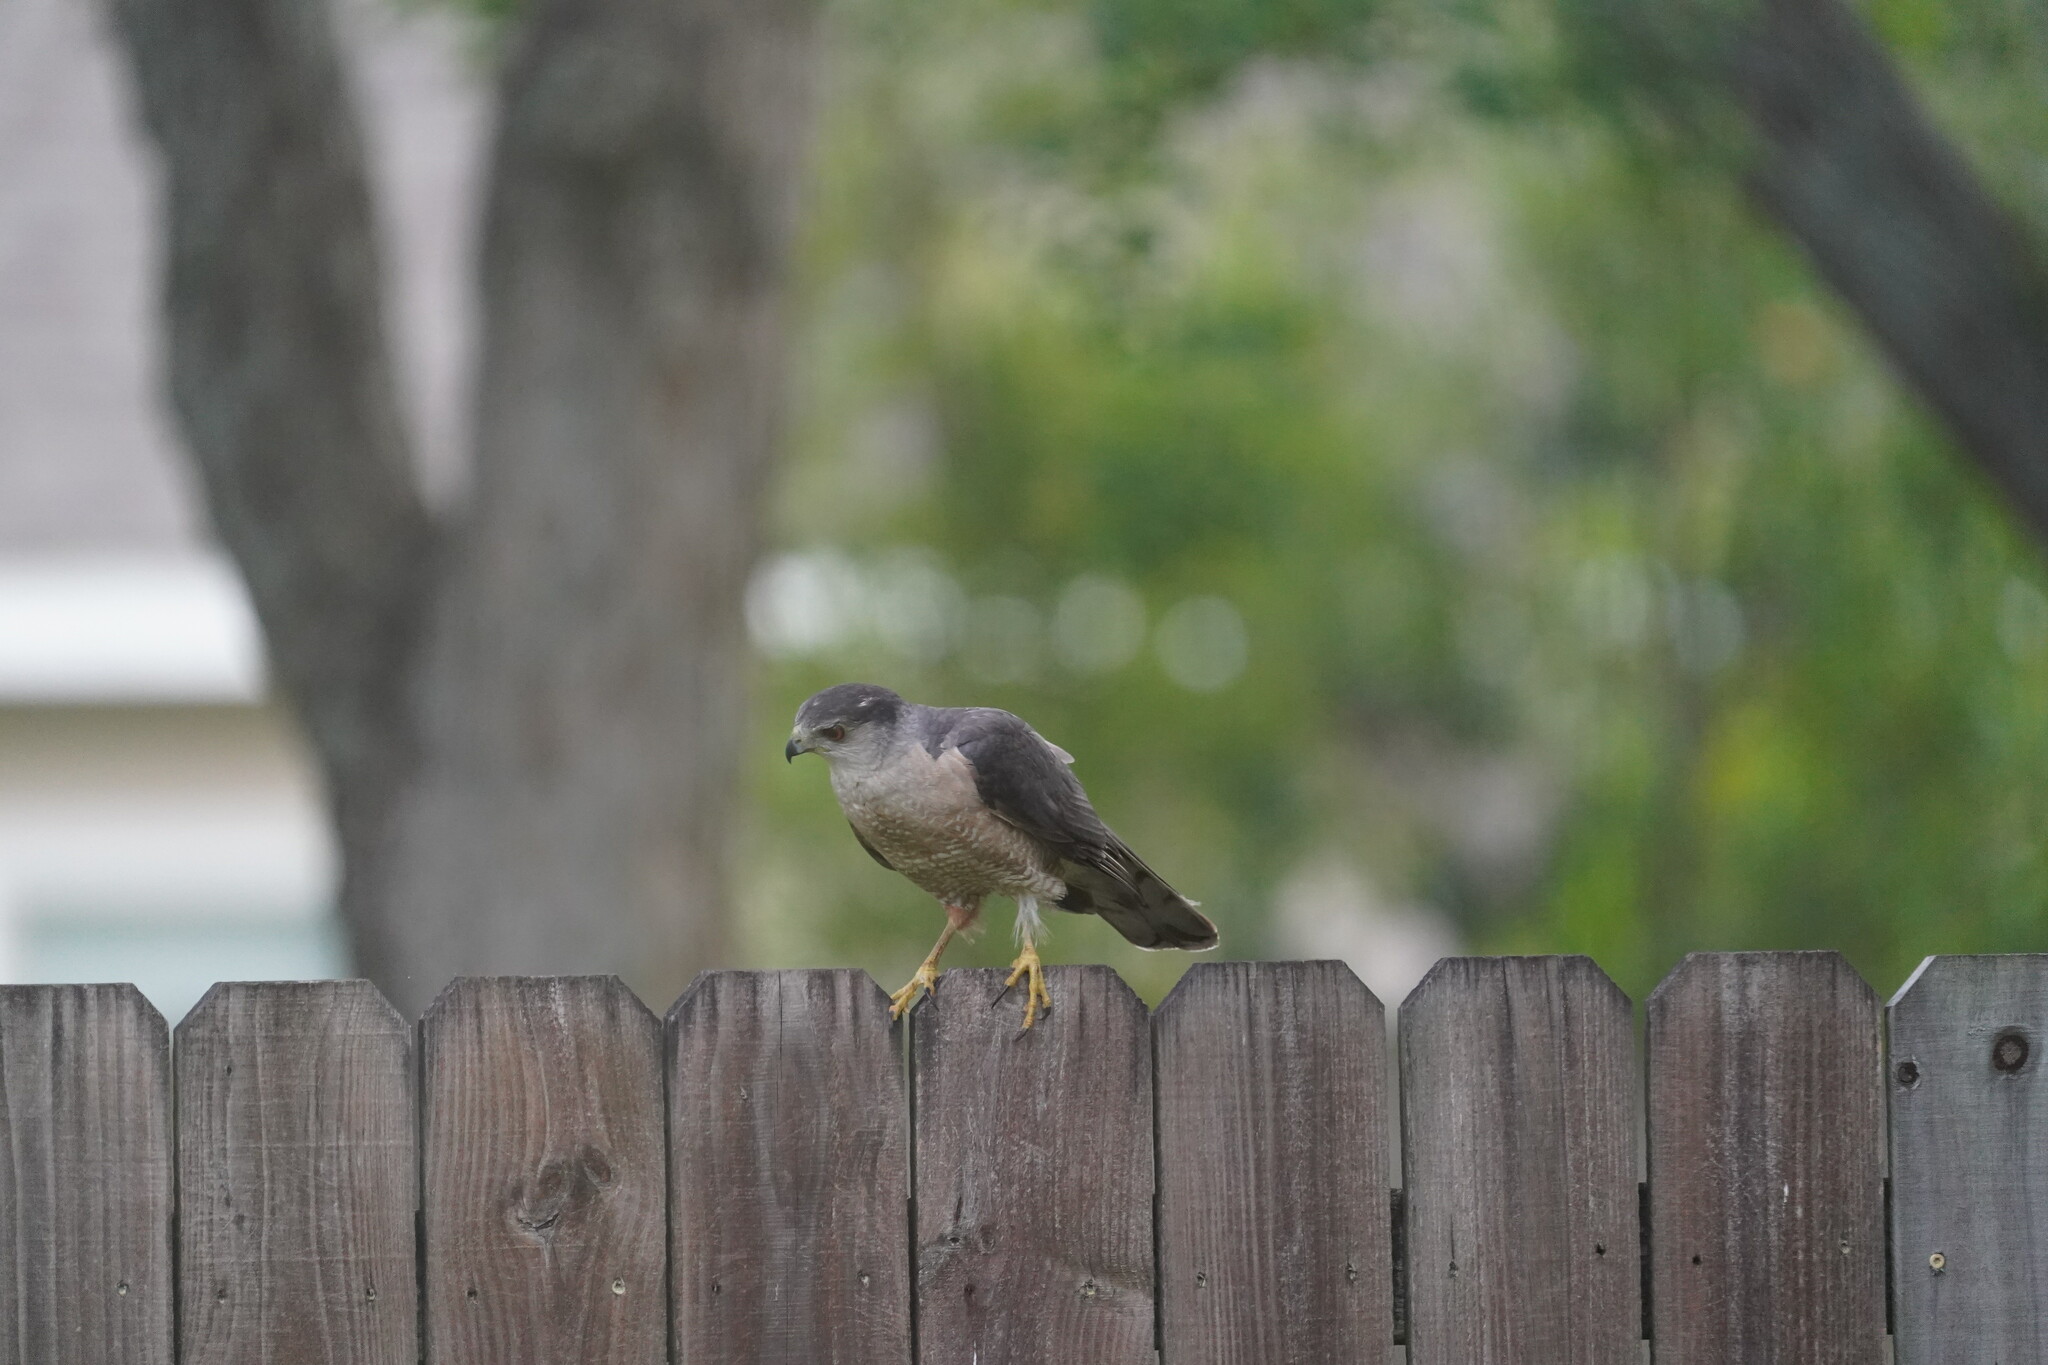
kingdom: Animalia
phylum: Chordata
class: Aves
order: Accipitriformes
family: Accipitridae
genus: Accipiter
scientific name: Accipiter cooperii
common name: Cooper's hawk
